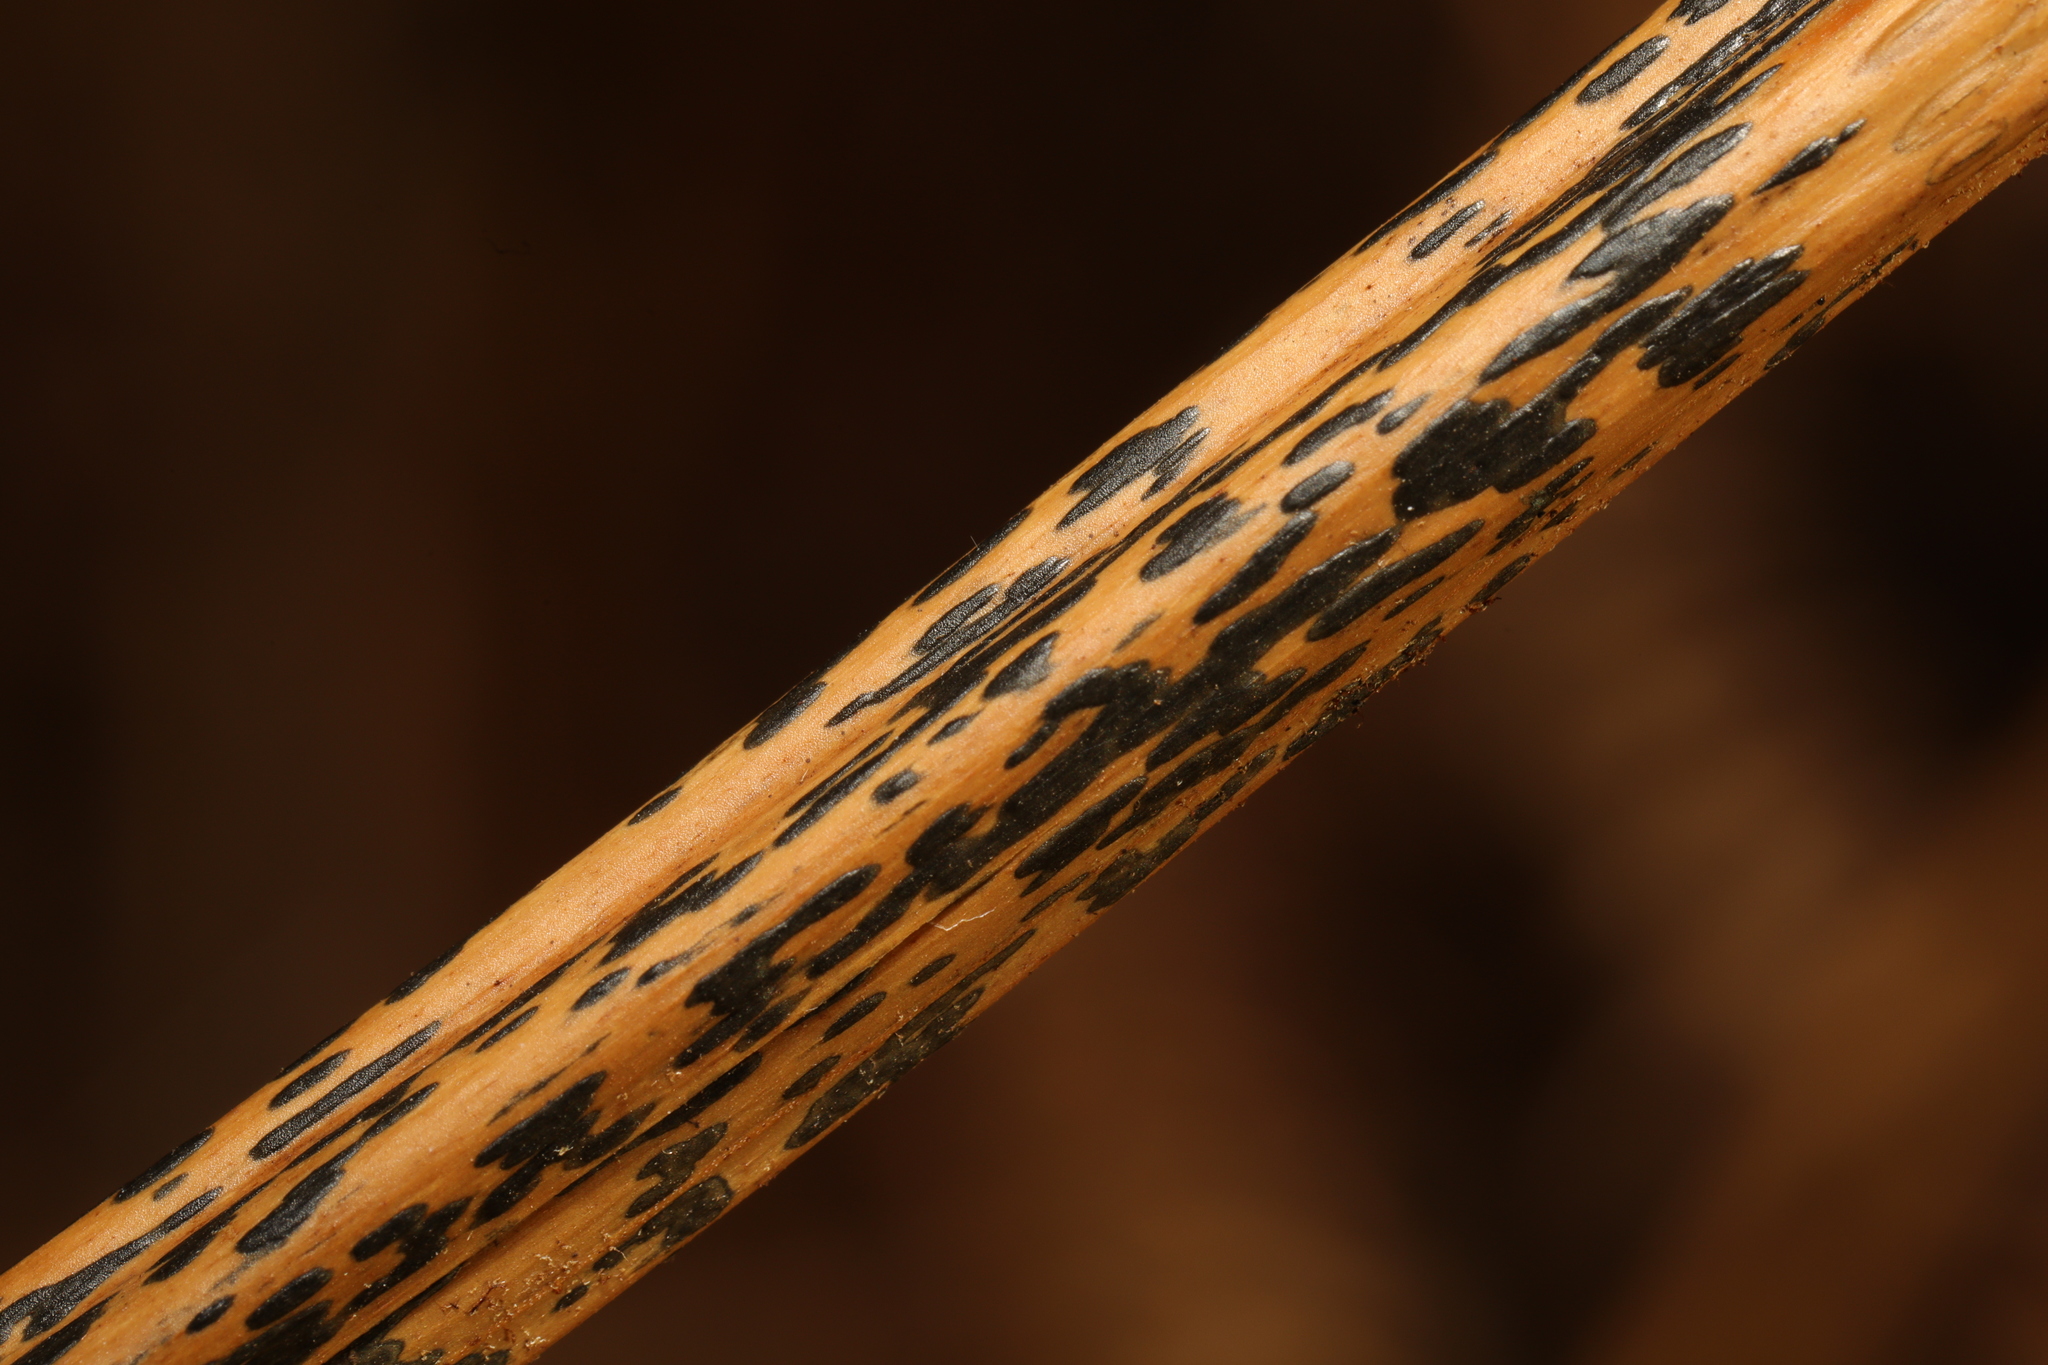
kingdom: Fungi
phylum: Ascomycota
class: Dothideomycetes
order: Pleosporales
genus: Rhopographus
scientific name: Rhopographus filicinus
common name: Bracken map
